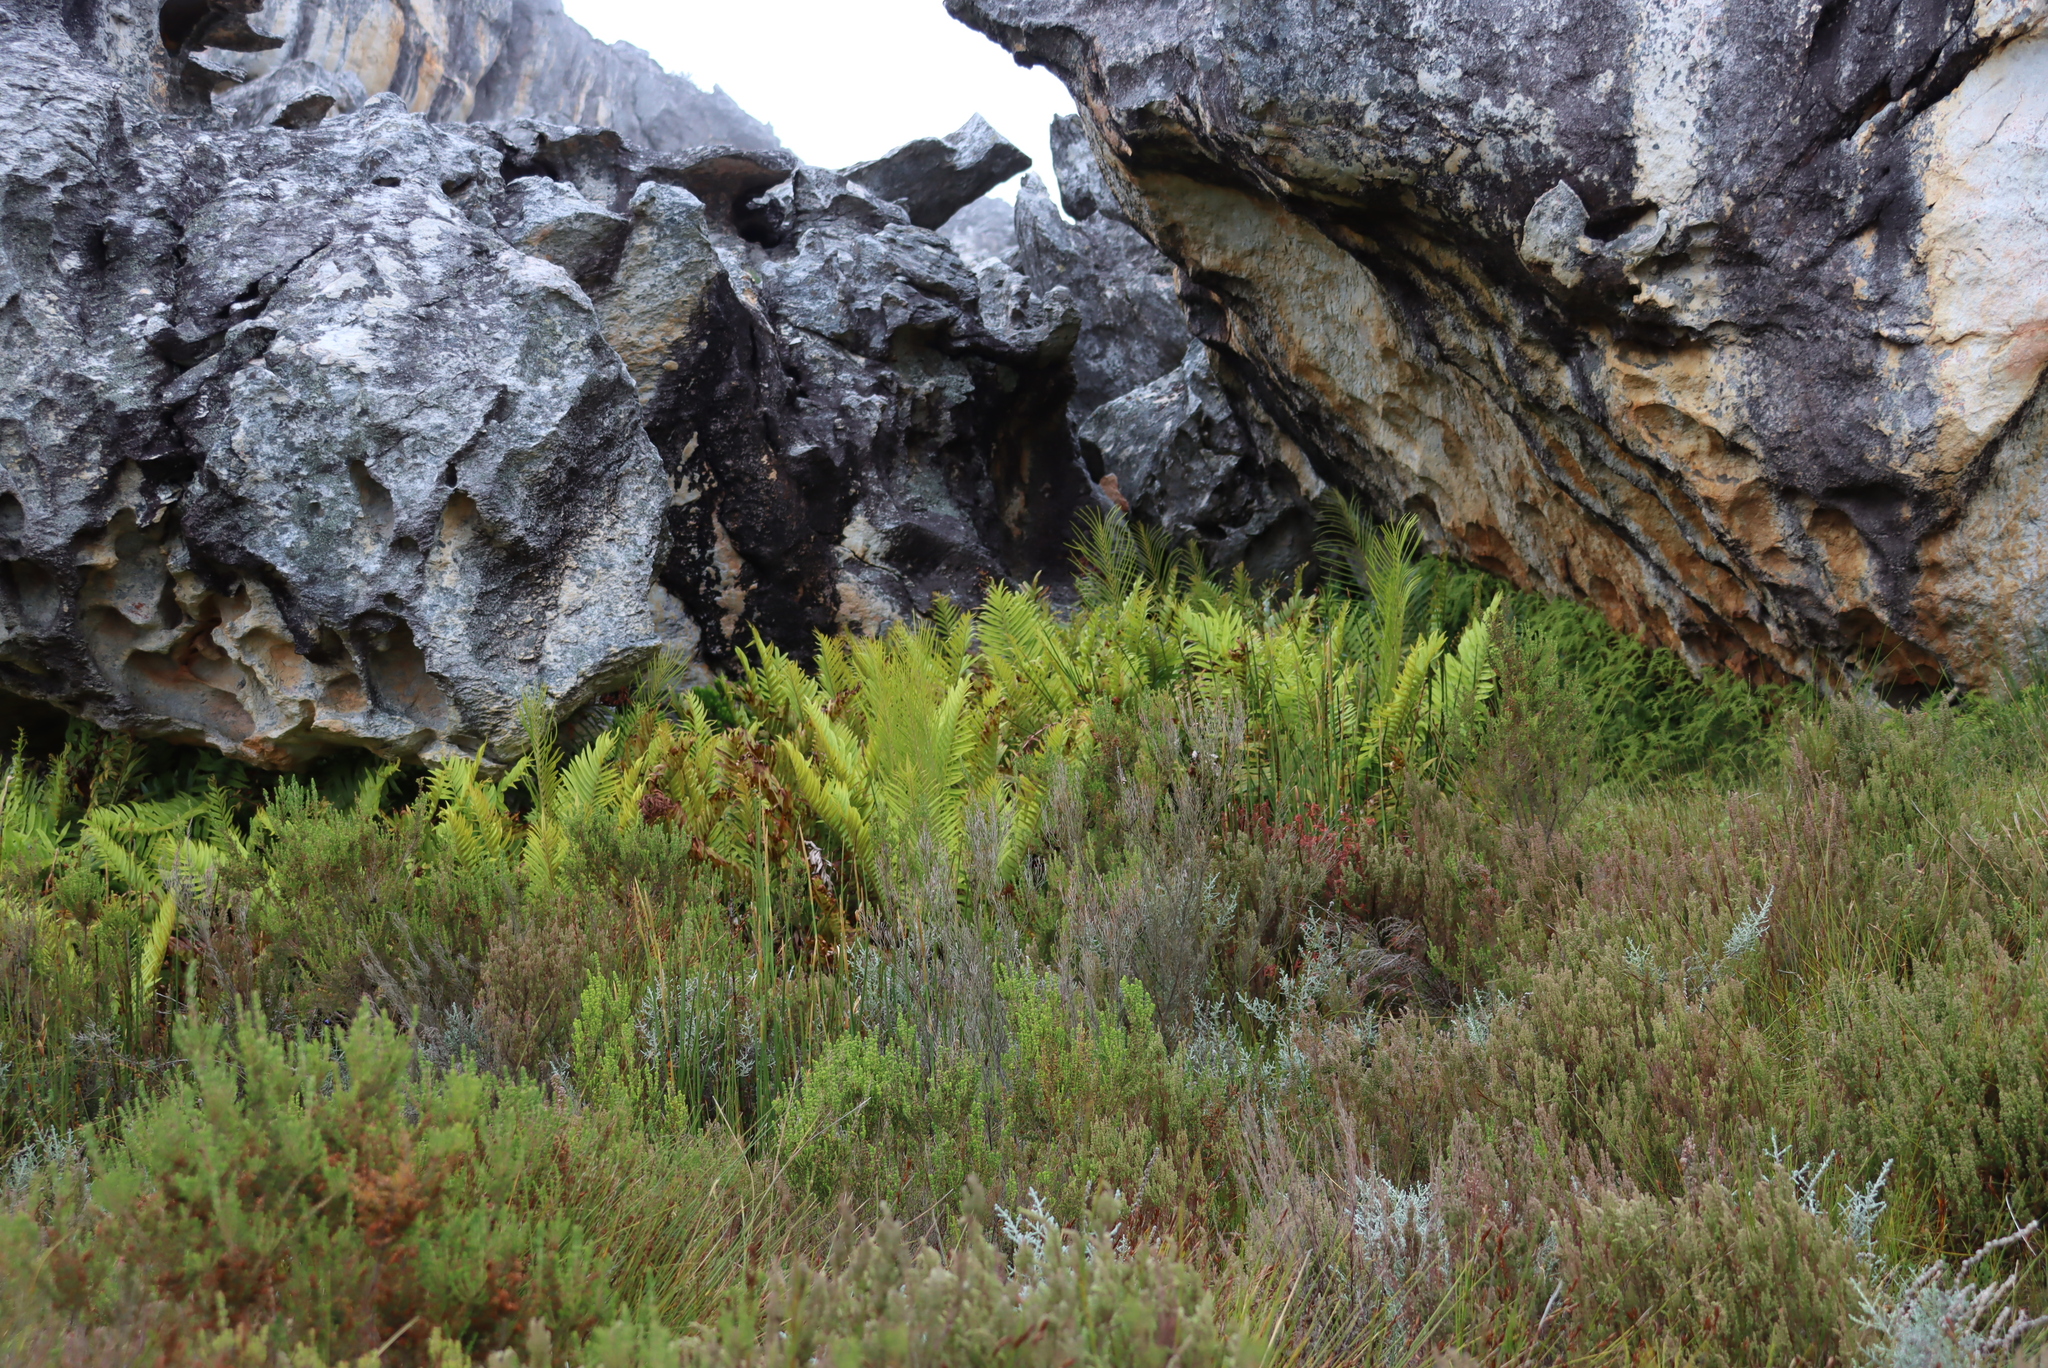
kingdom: Plantae
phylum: Tracheophyta
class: Polypodiopsida
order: Osmundales
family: Osmundaceae
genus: Todea
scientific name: Todea barbara
